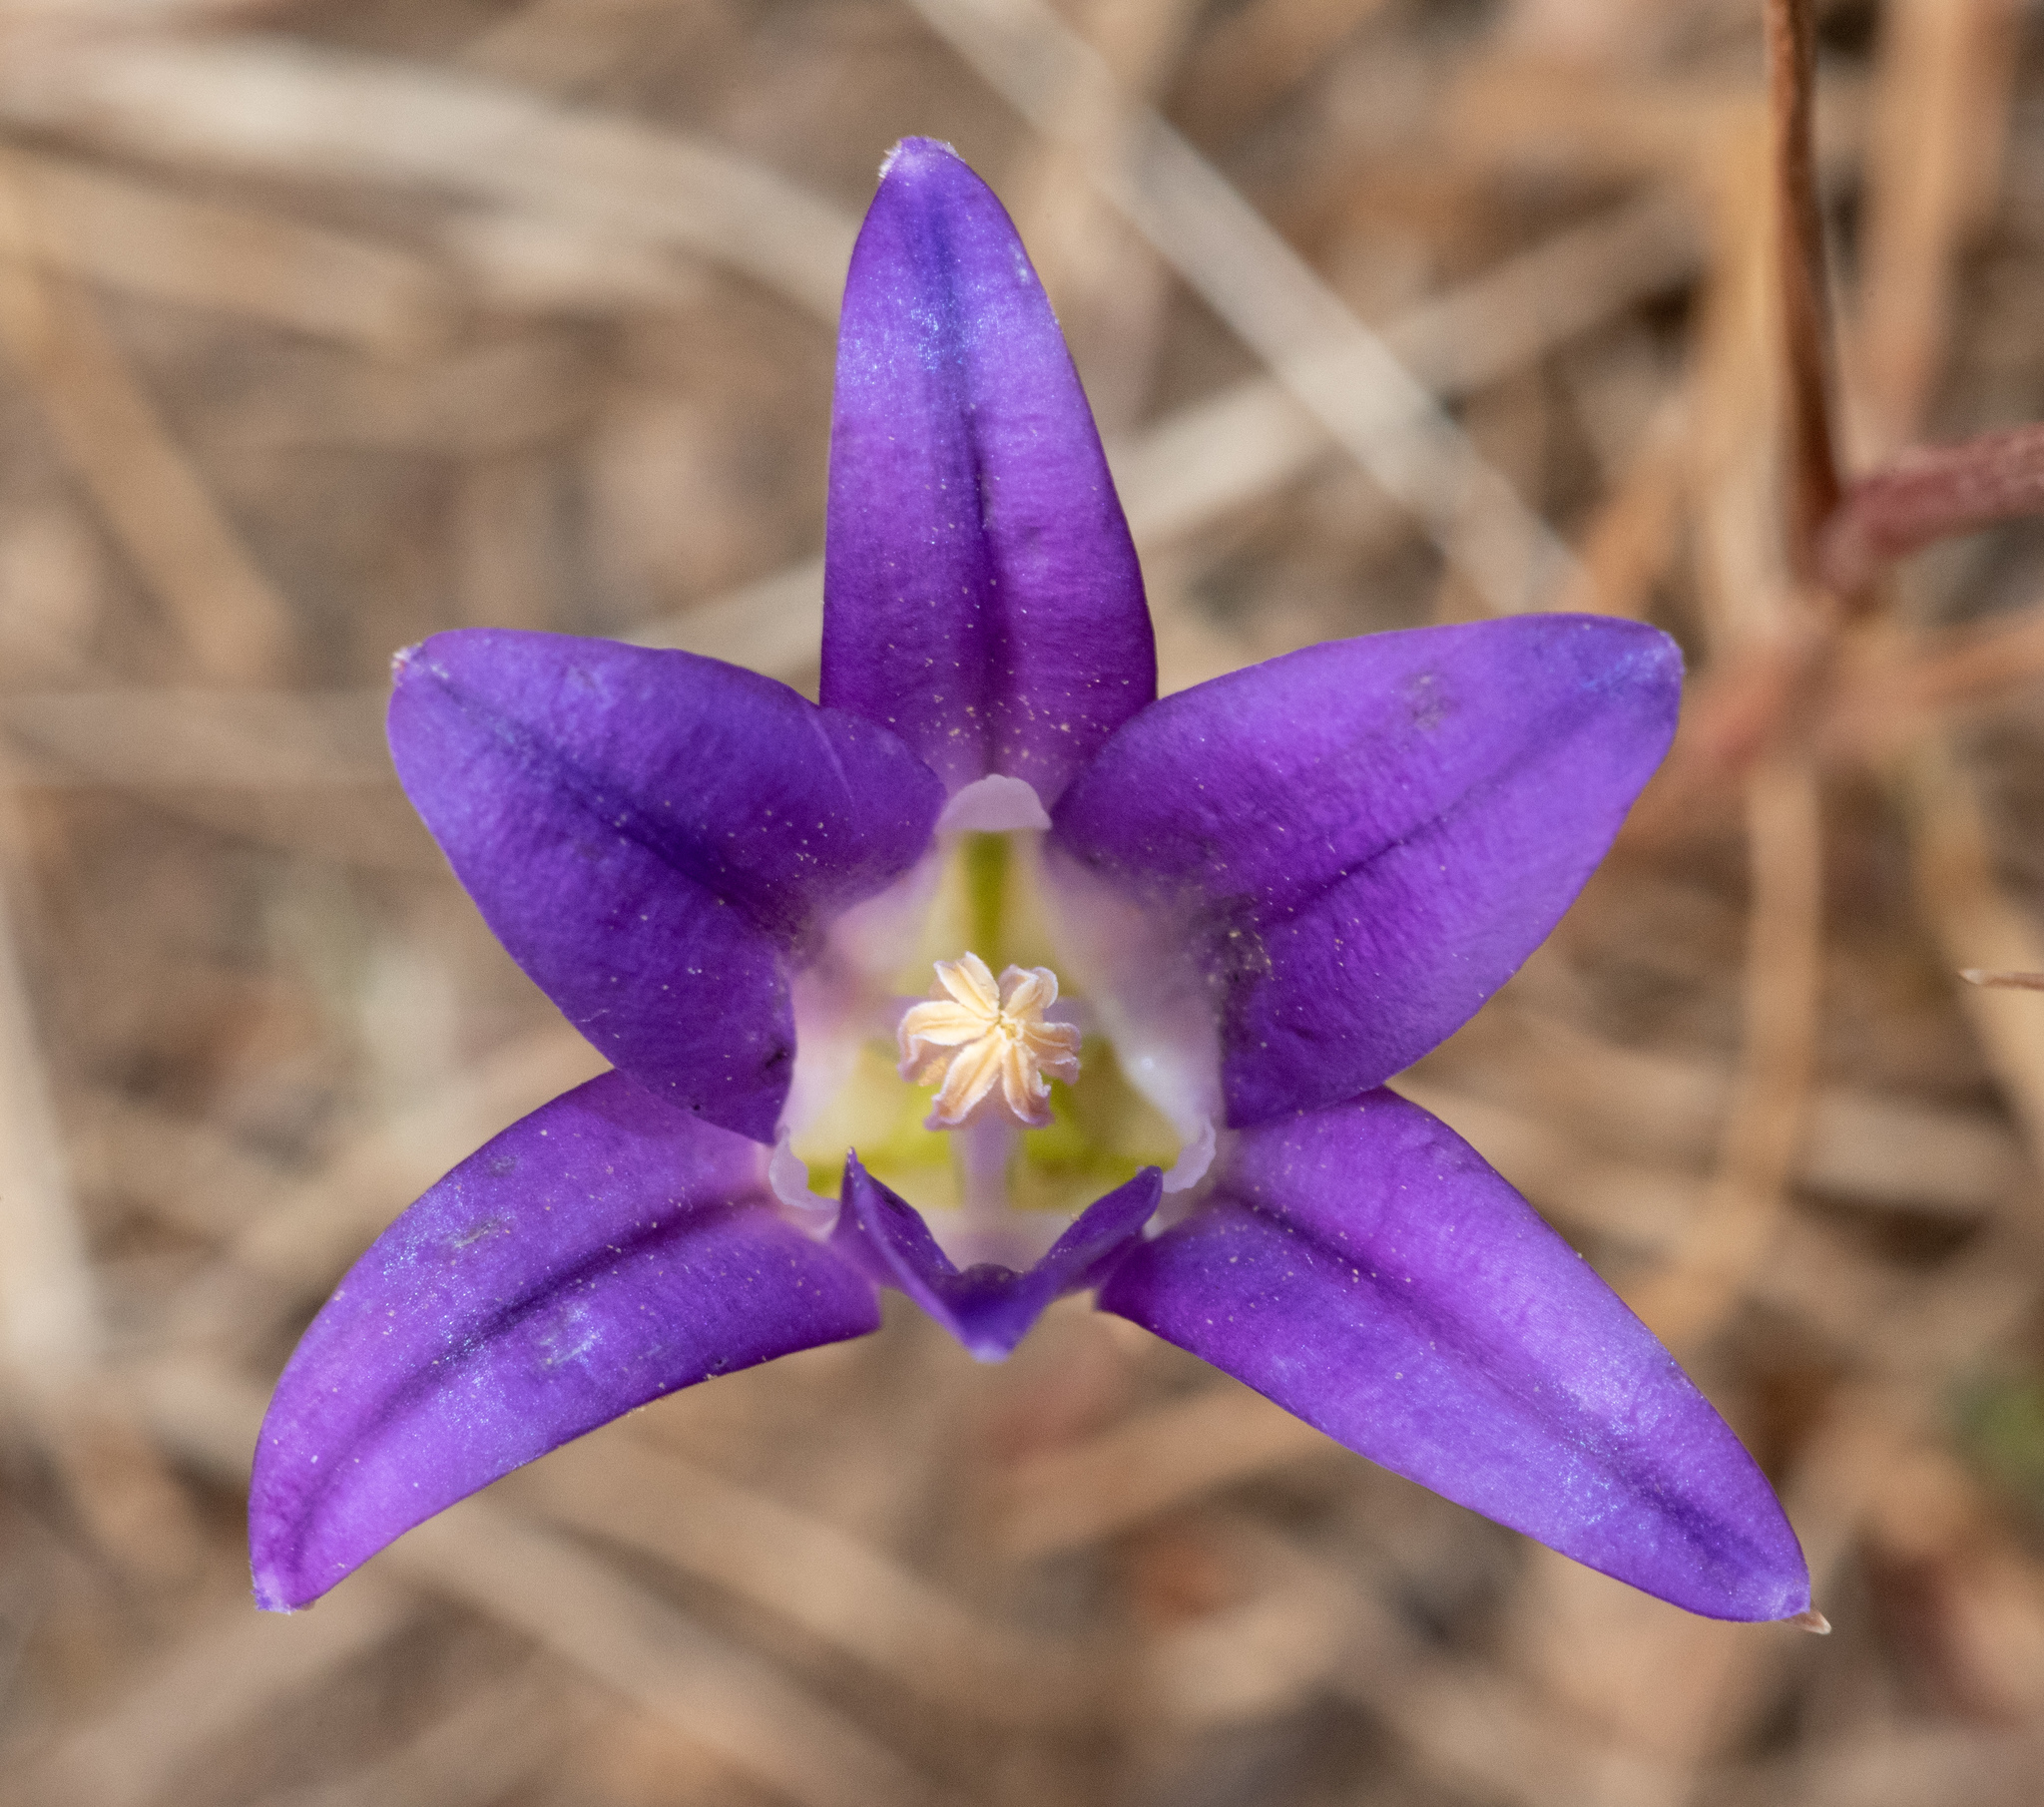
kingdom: Plantae
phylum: Tracheophyta
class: Liliopsida
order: Asparagales
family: Asparagaceae
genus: Brodiaea
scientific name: Brodiaea elegans
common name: Elegant cluster-lily
